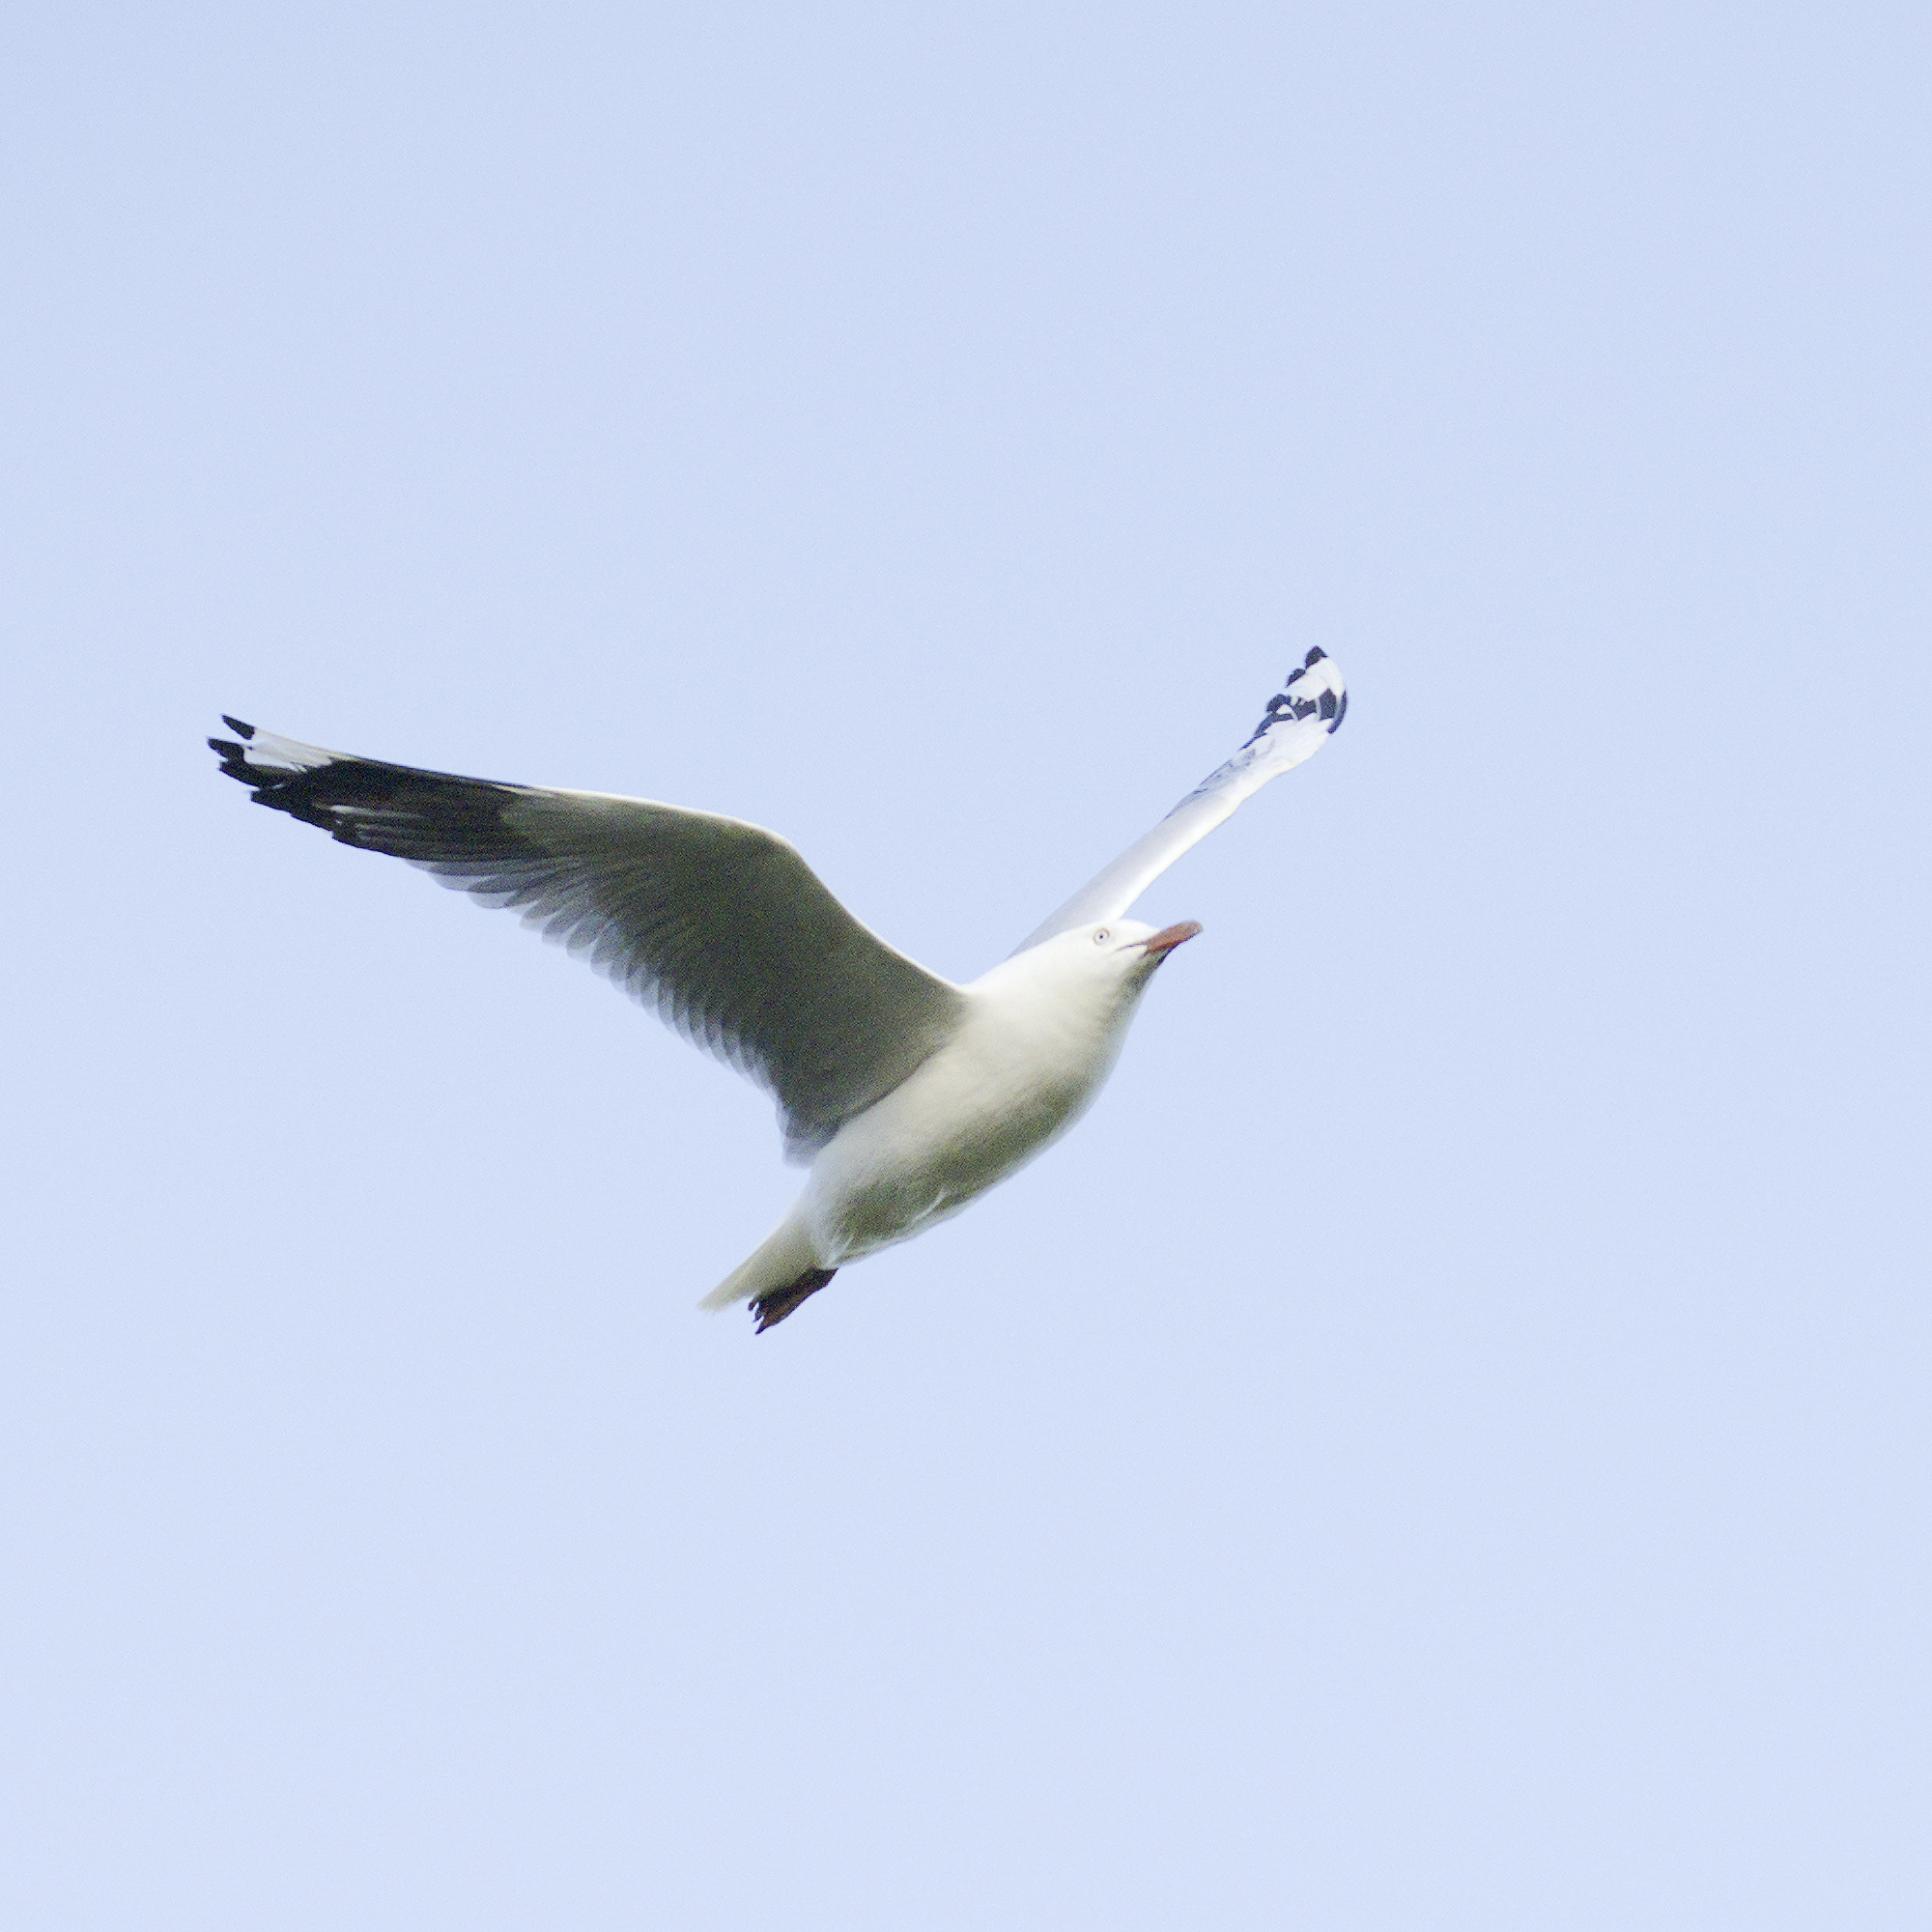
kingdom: Animalia
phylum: Chordata
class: Aves
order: Charadriiformes
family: Laridae
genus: Chroicocephalus
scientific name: Chroicocephalus novaehollandiae
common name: Silver gull
